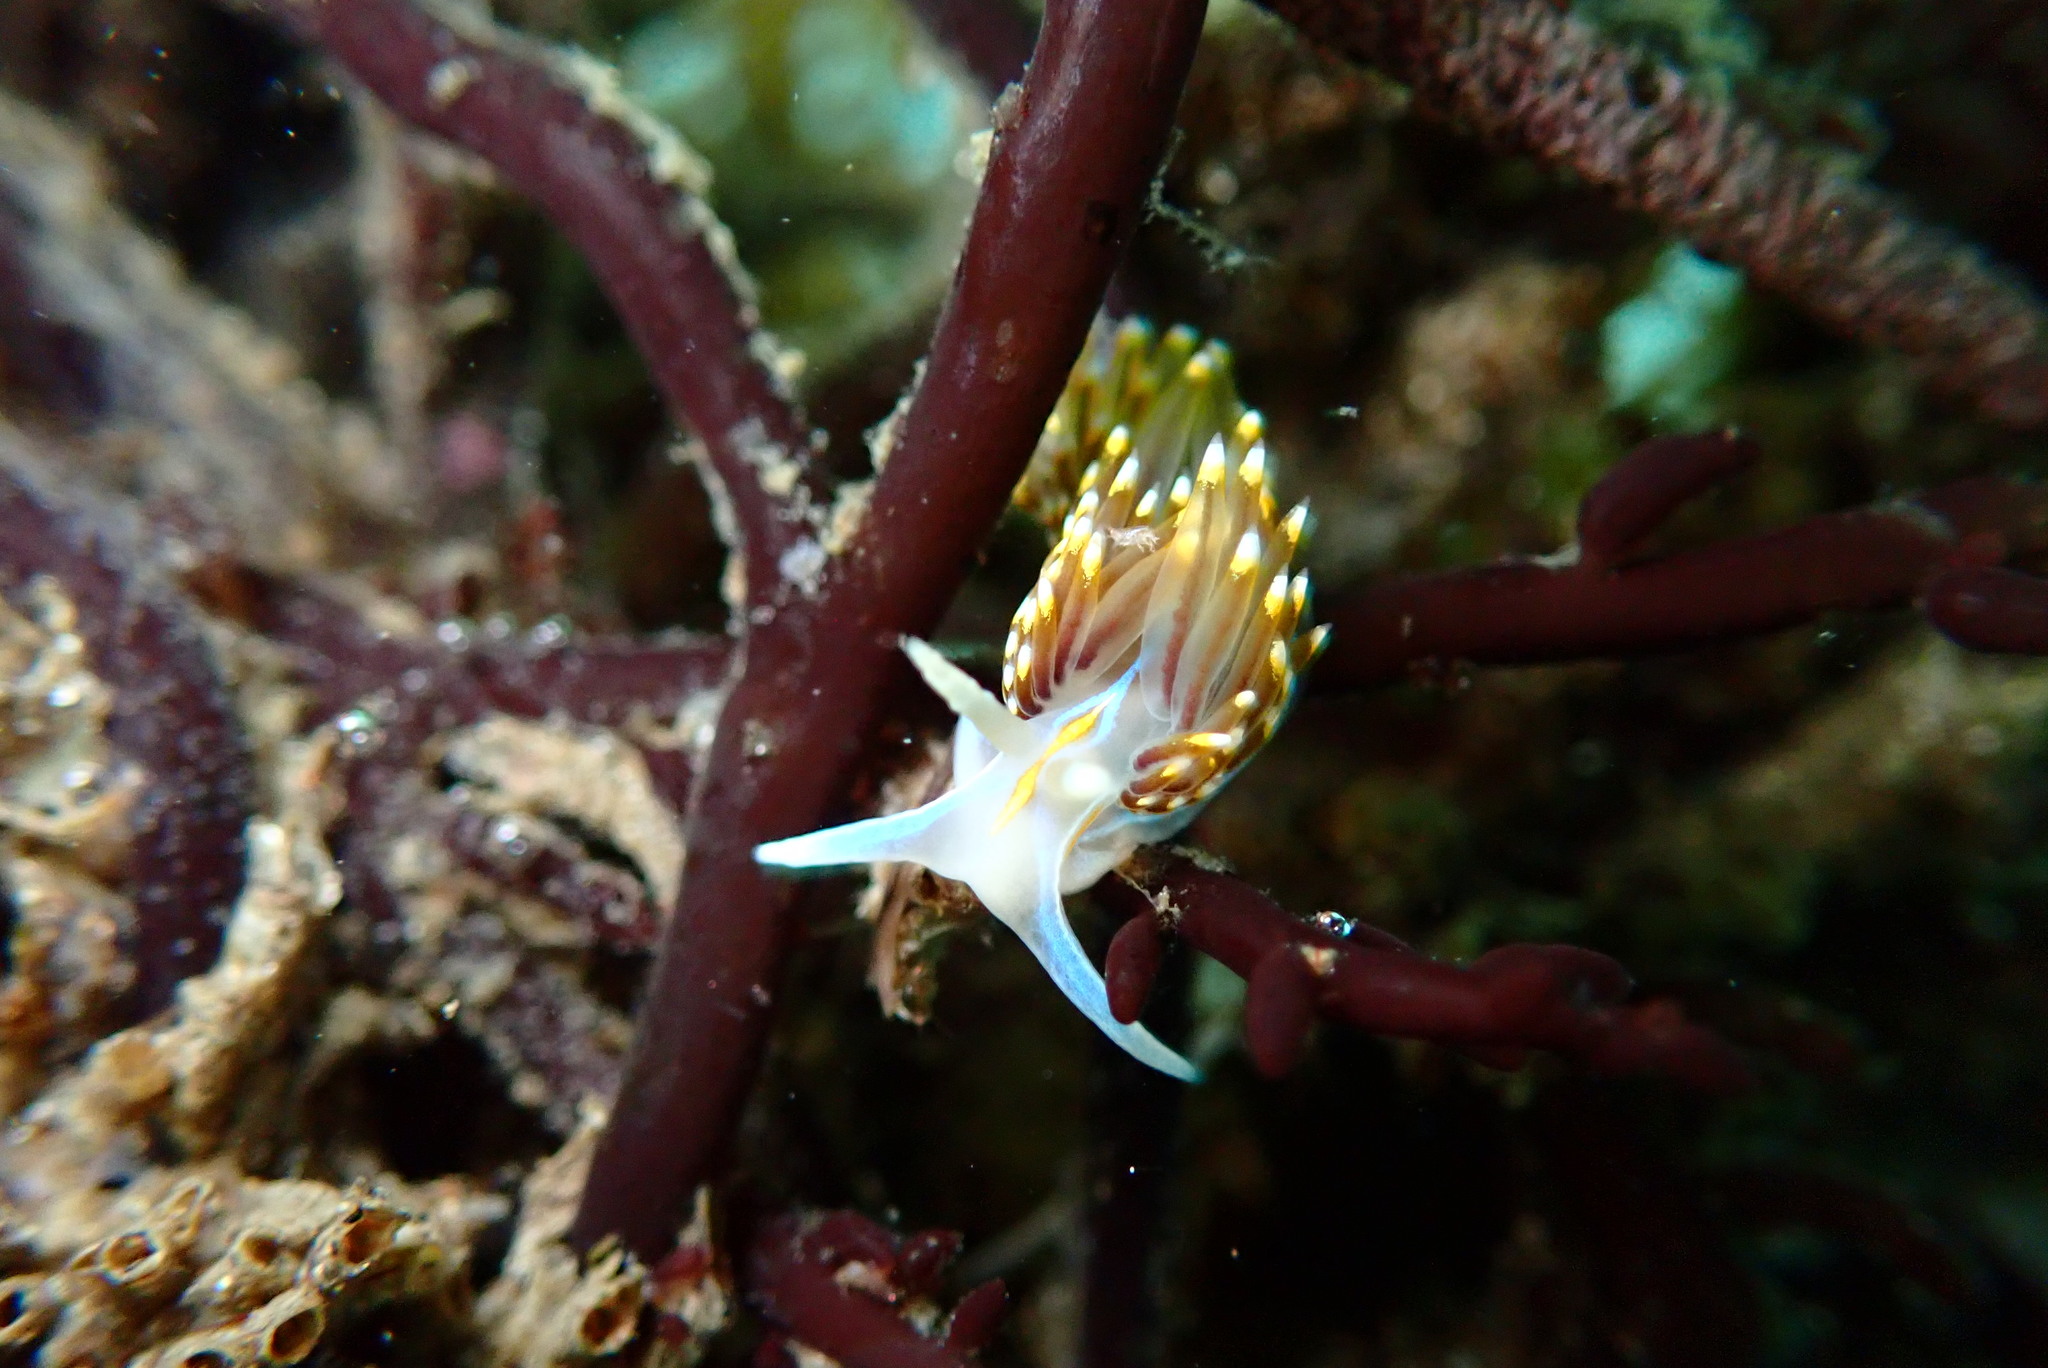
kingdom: Animalia
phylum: Mollusca
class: Gastropoda
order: Nudibranchia
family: Myrrhinidae
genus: Hermissenda
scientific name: Hermissenda opalescens
